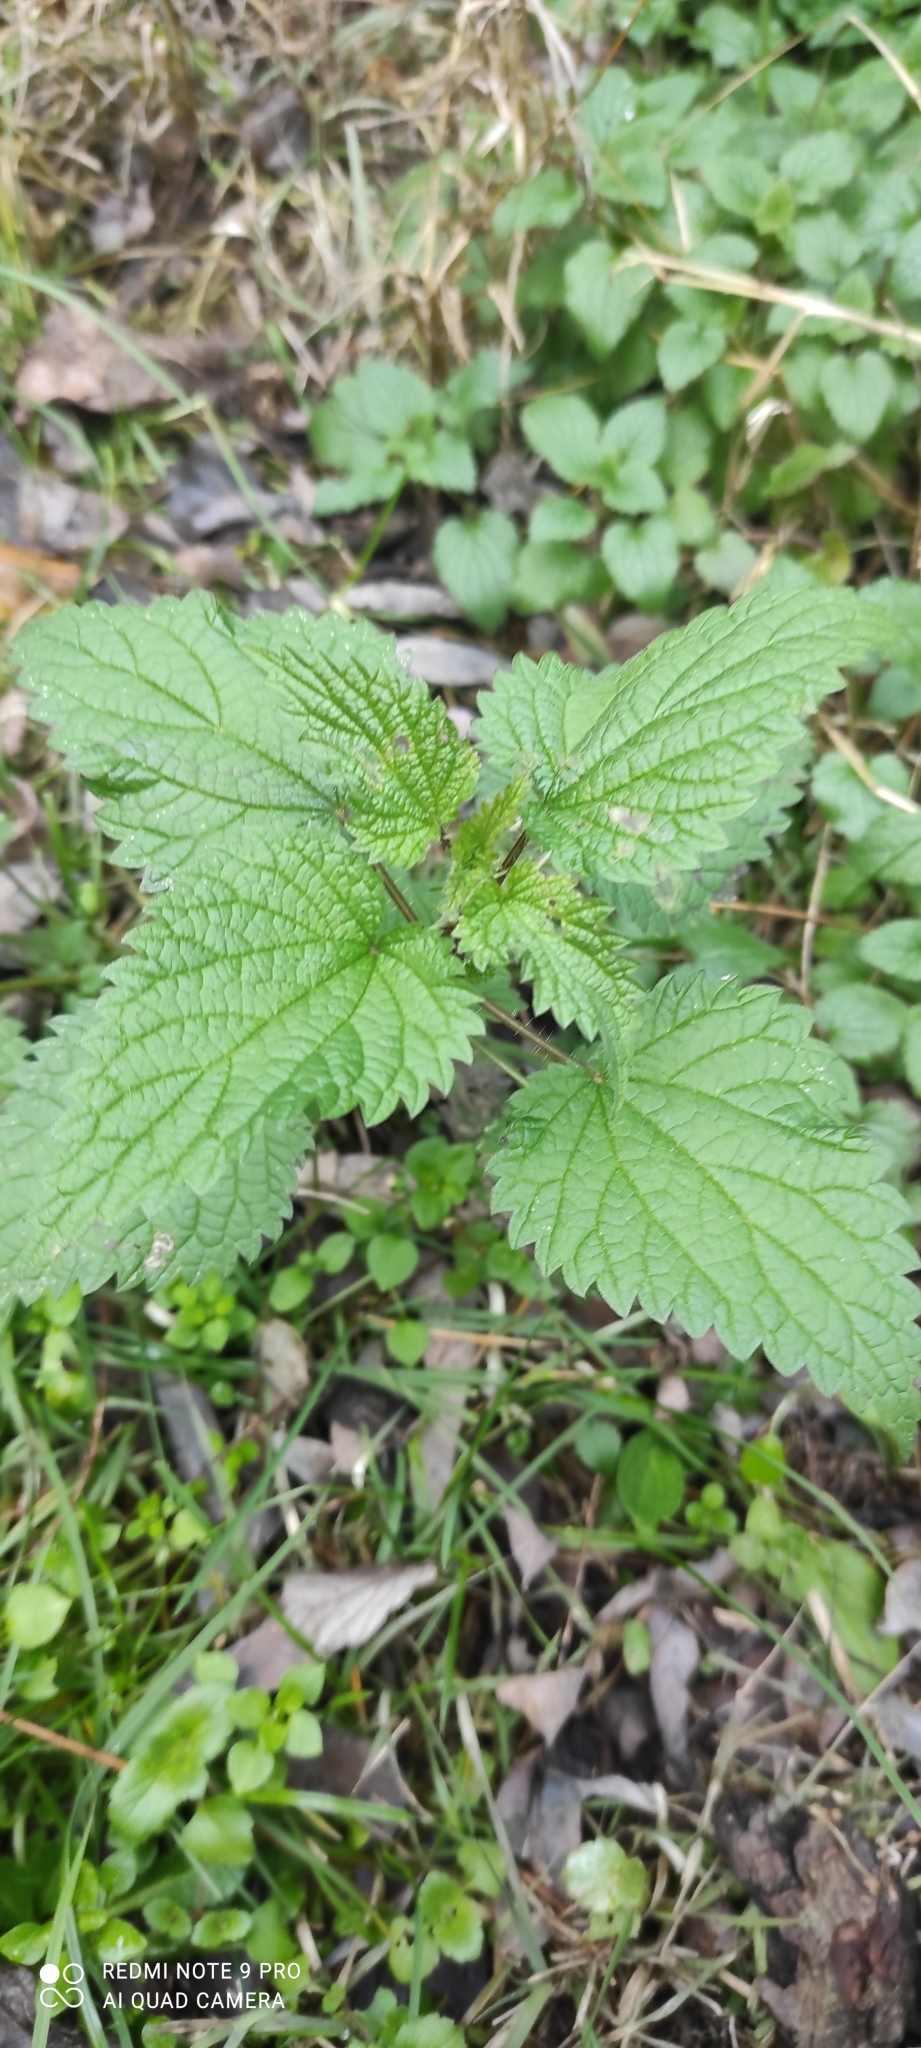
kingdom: Plantae
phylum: Tracheophyta
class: Magnoliopsida
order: Rosales
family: Urticaceae
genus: Urtica
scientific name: Urtica dioica
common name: Common nettle
